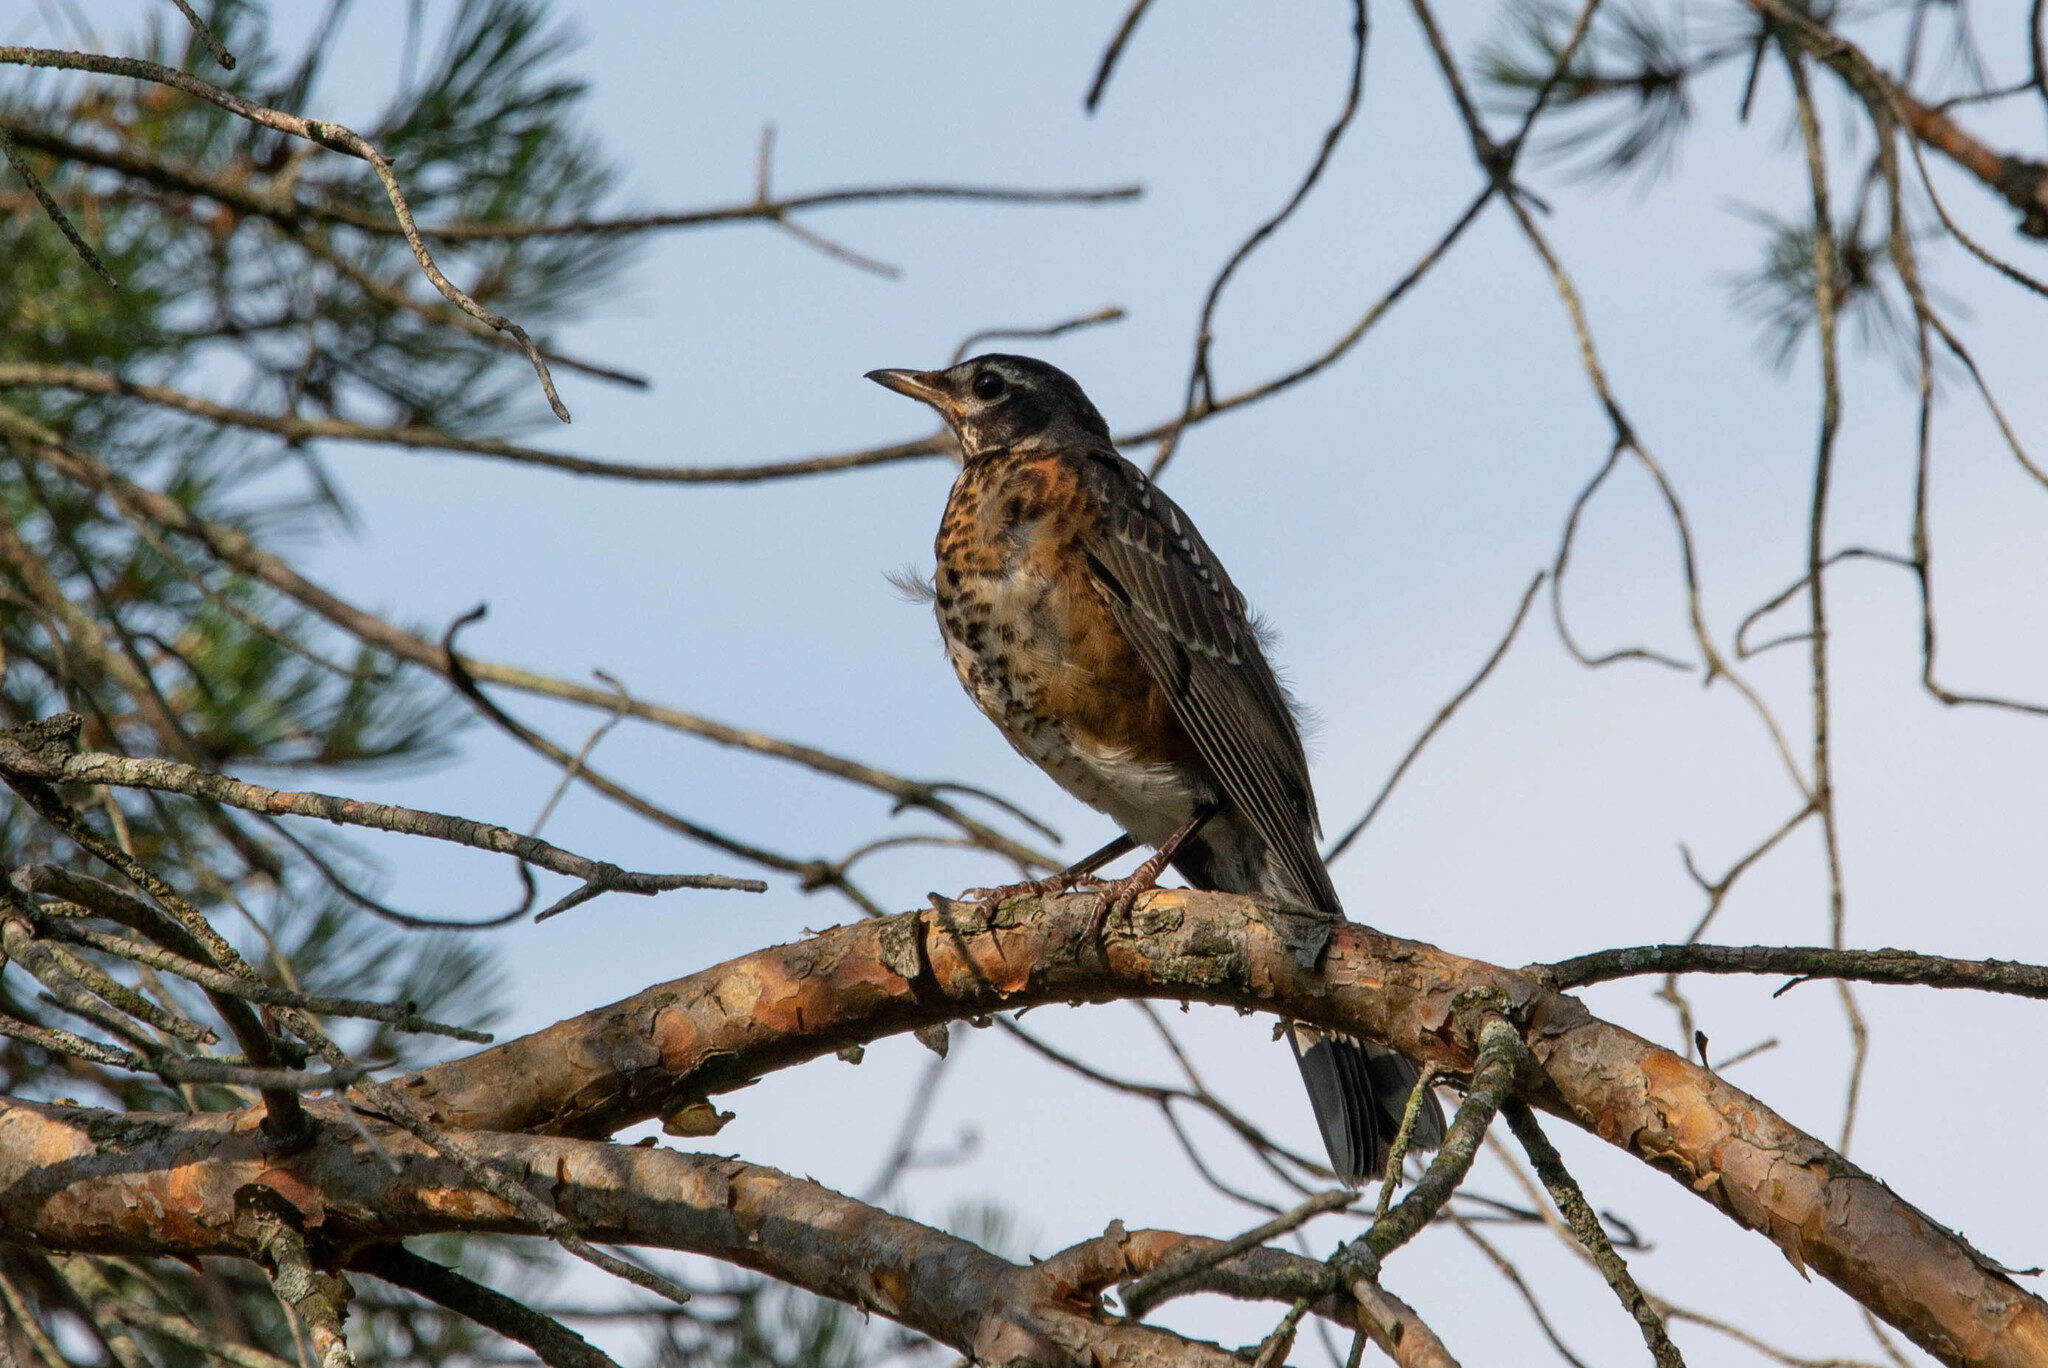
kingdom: Animalia
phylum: Chordata
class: Aves
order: Passeriformes
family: Turdidae
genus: Turdus
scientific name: Turdus migratorius
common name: American robin
